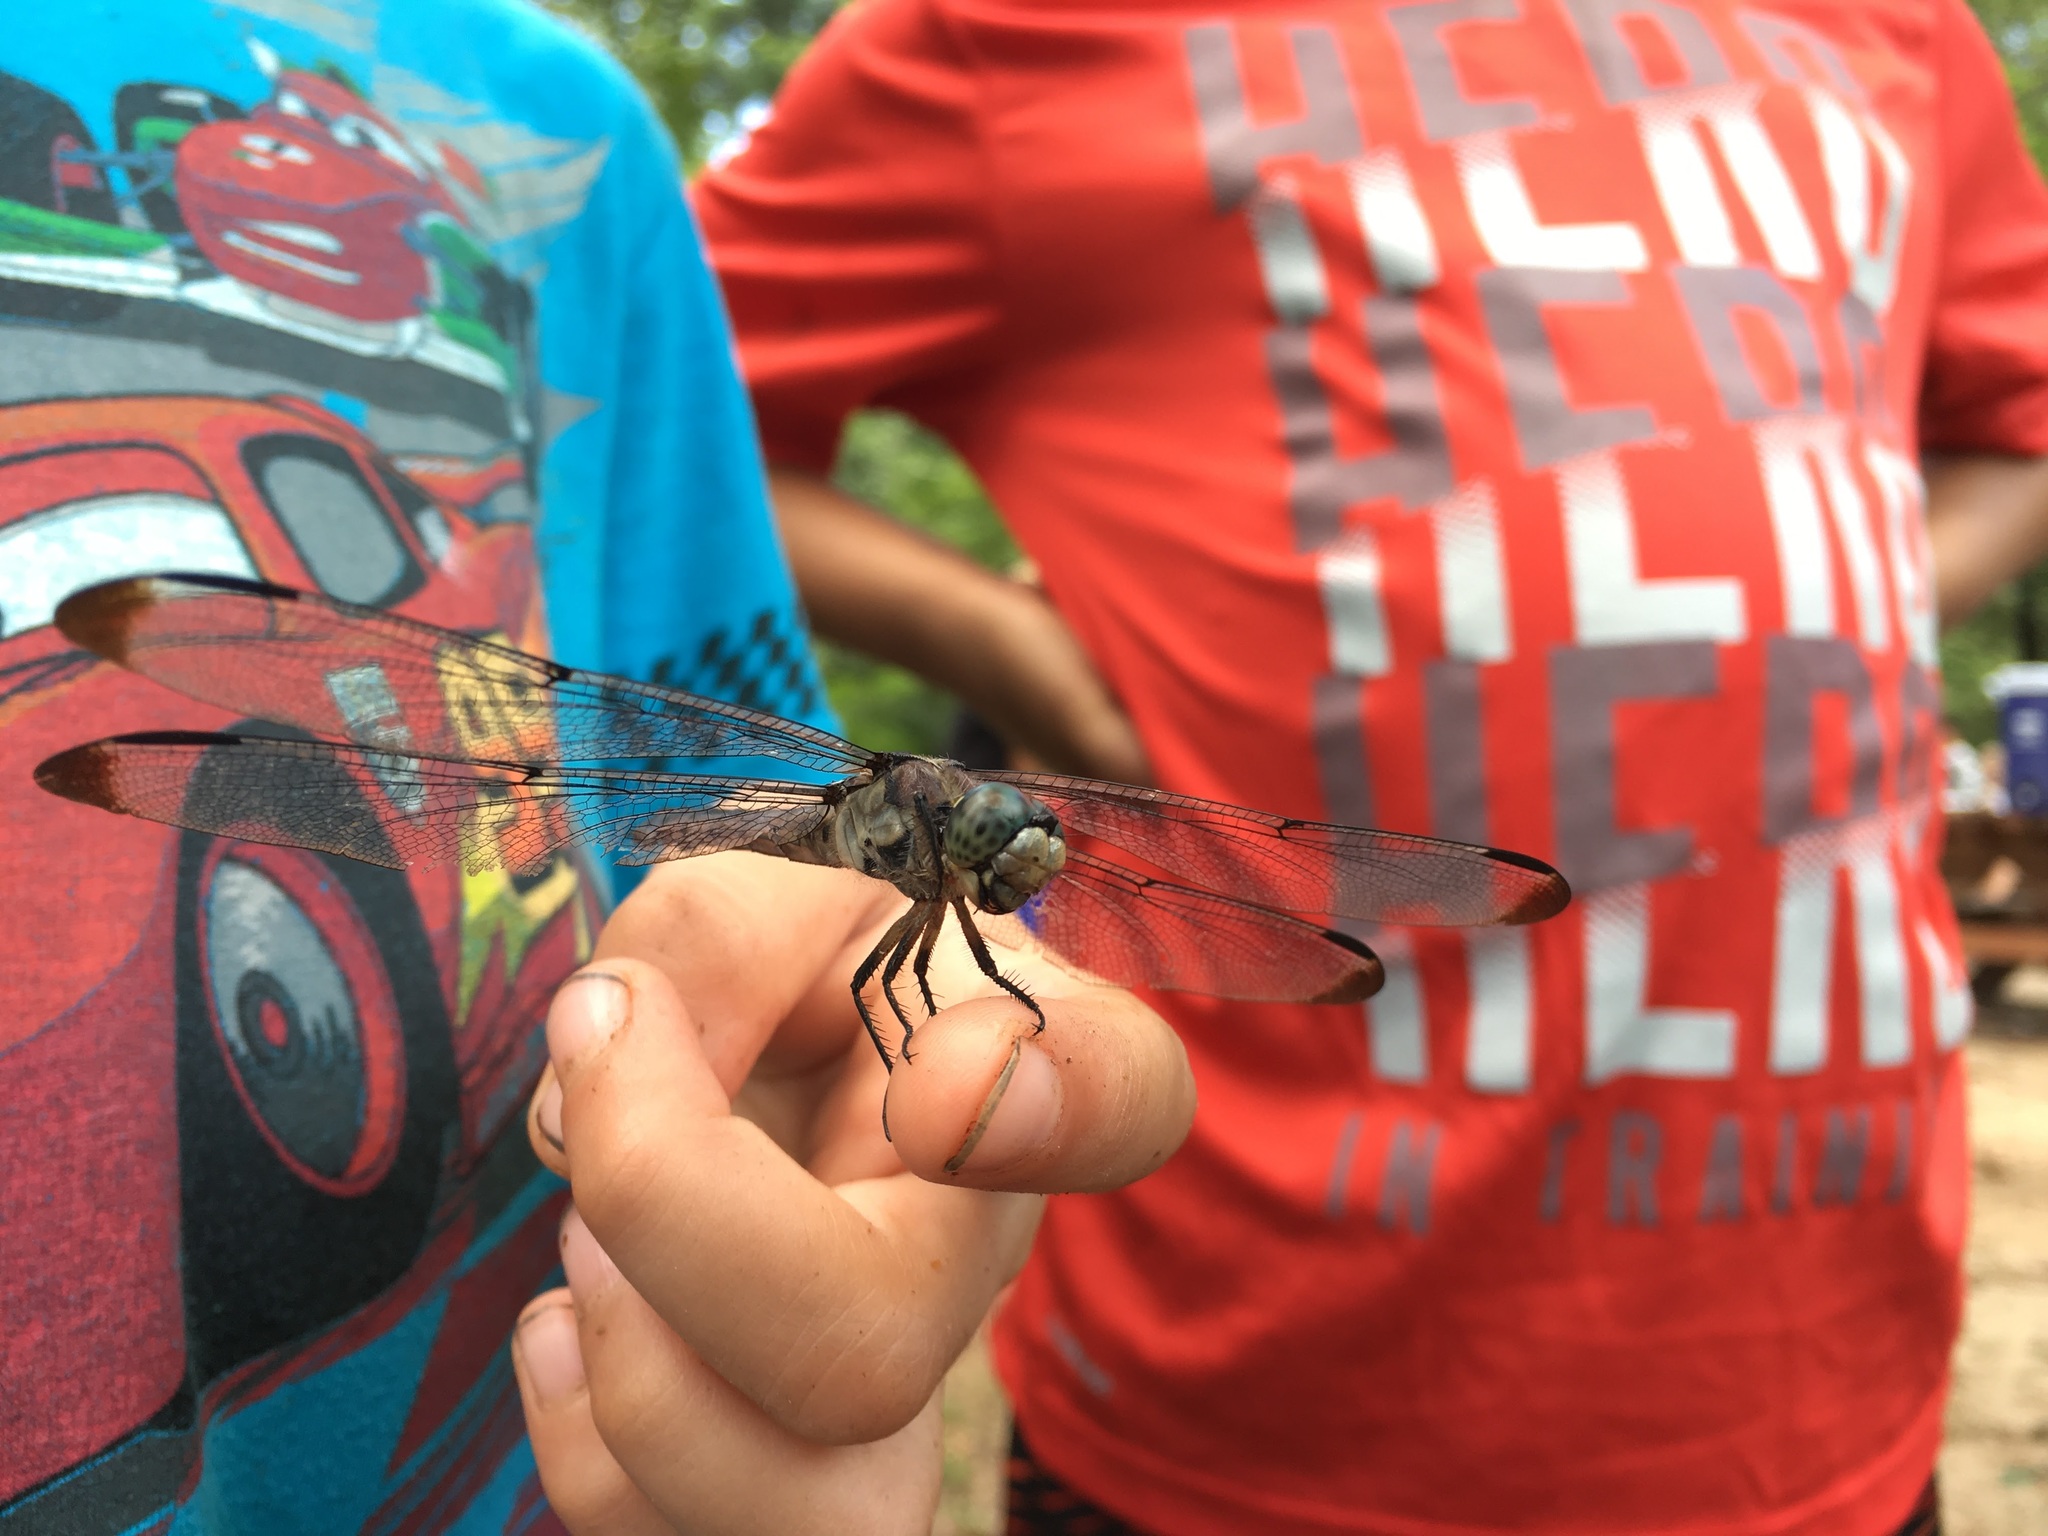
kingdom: Animalia
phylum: Arthropoda
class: Insecta
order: Odonata
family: Libellulidae
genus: Libellula
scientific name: Libellula vibrans
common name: Great blue skimmer
